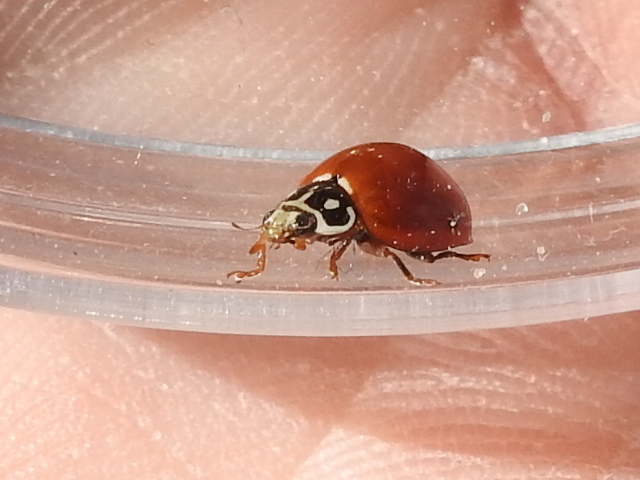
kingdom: Animalia
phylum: Arthropoda
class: Insecta
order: Coleoptera
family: Coccinellidae
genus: Cycloneda
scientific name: Cycloneda sanguinea
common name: Ladybird beetle
